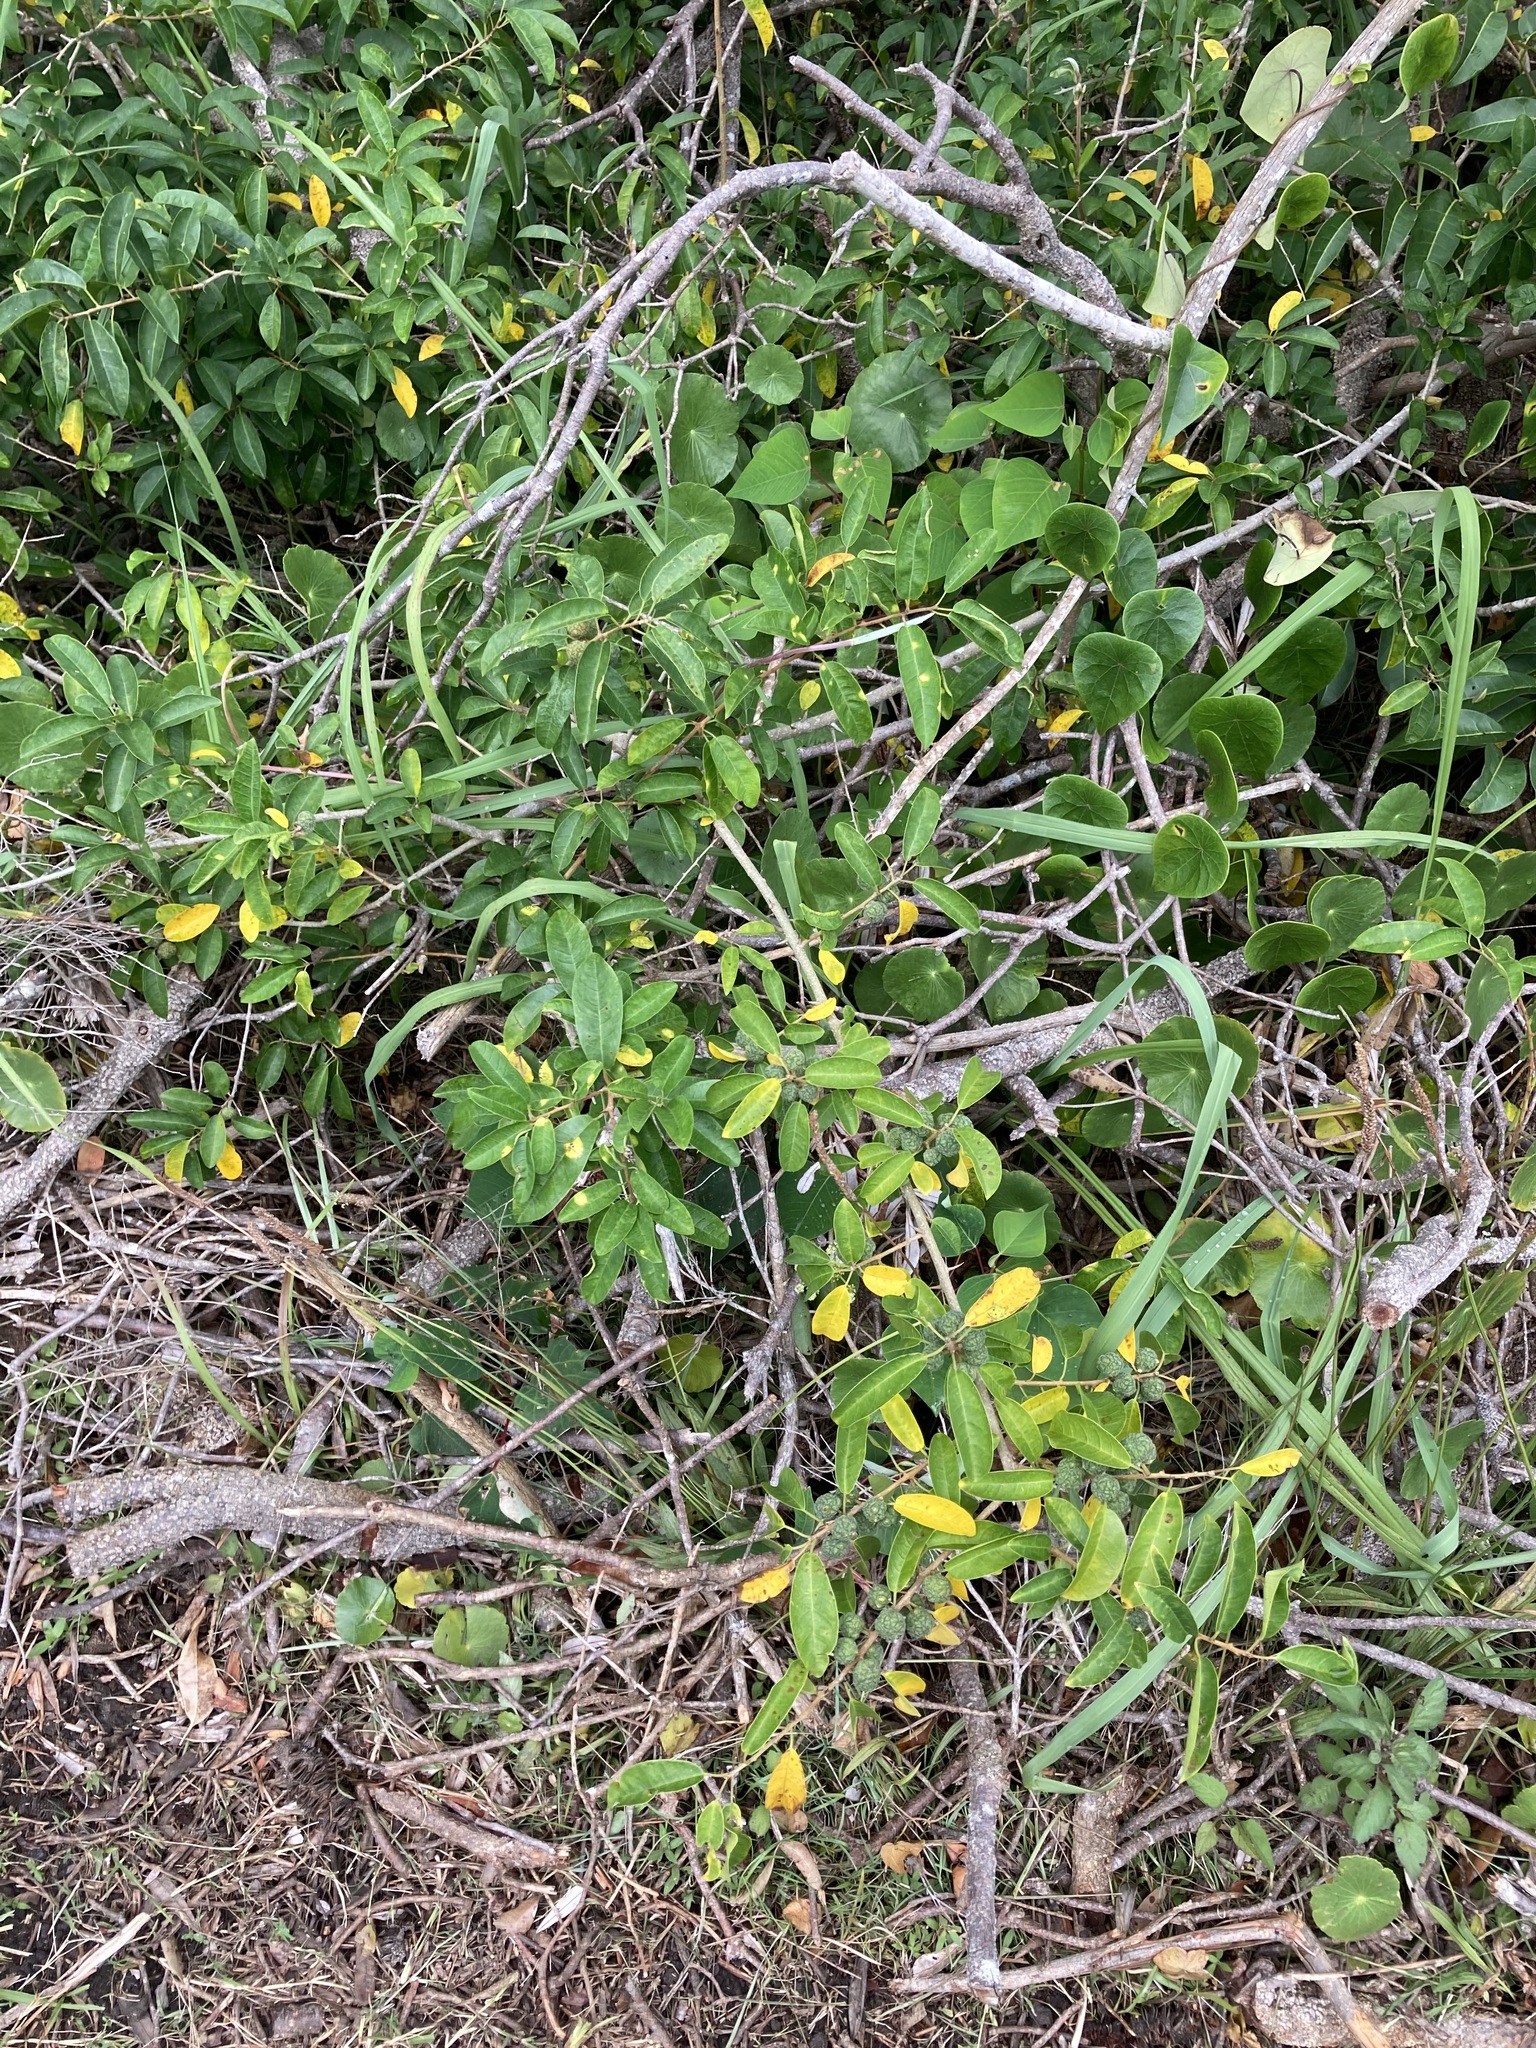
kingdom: Plantae
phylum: Tracheophyta
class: Magnoliopsida
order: Rosales
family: Moraceae
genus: Maclura
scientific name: Maclura cochinchinensis
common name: Cockspurthorn
